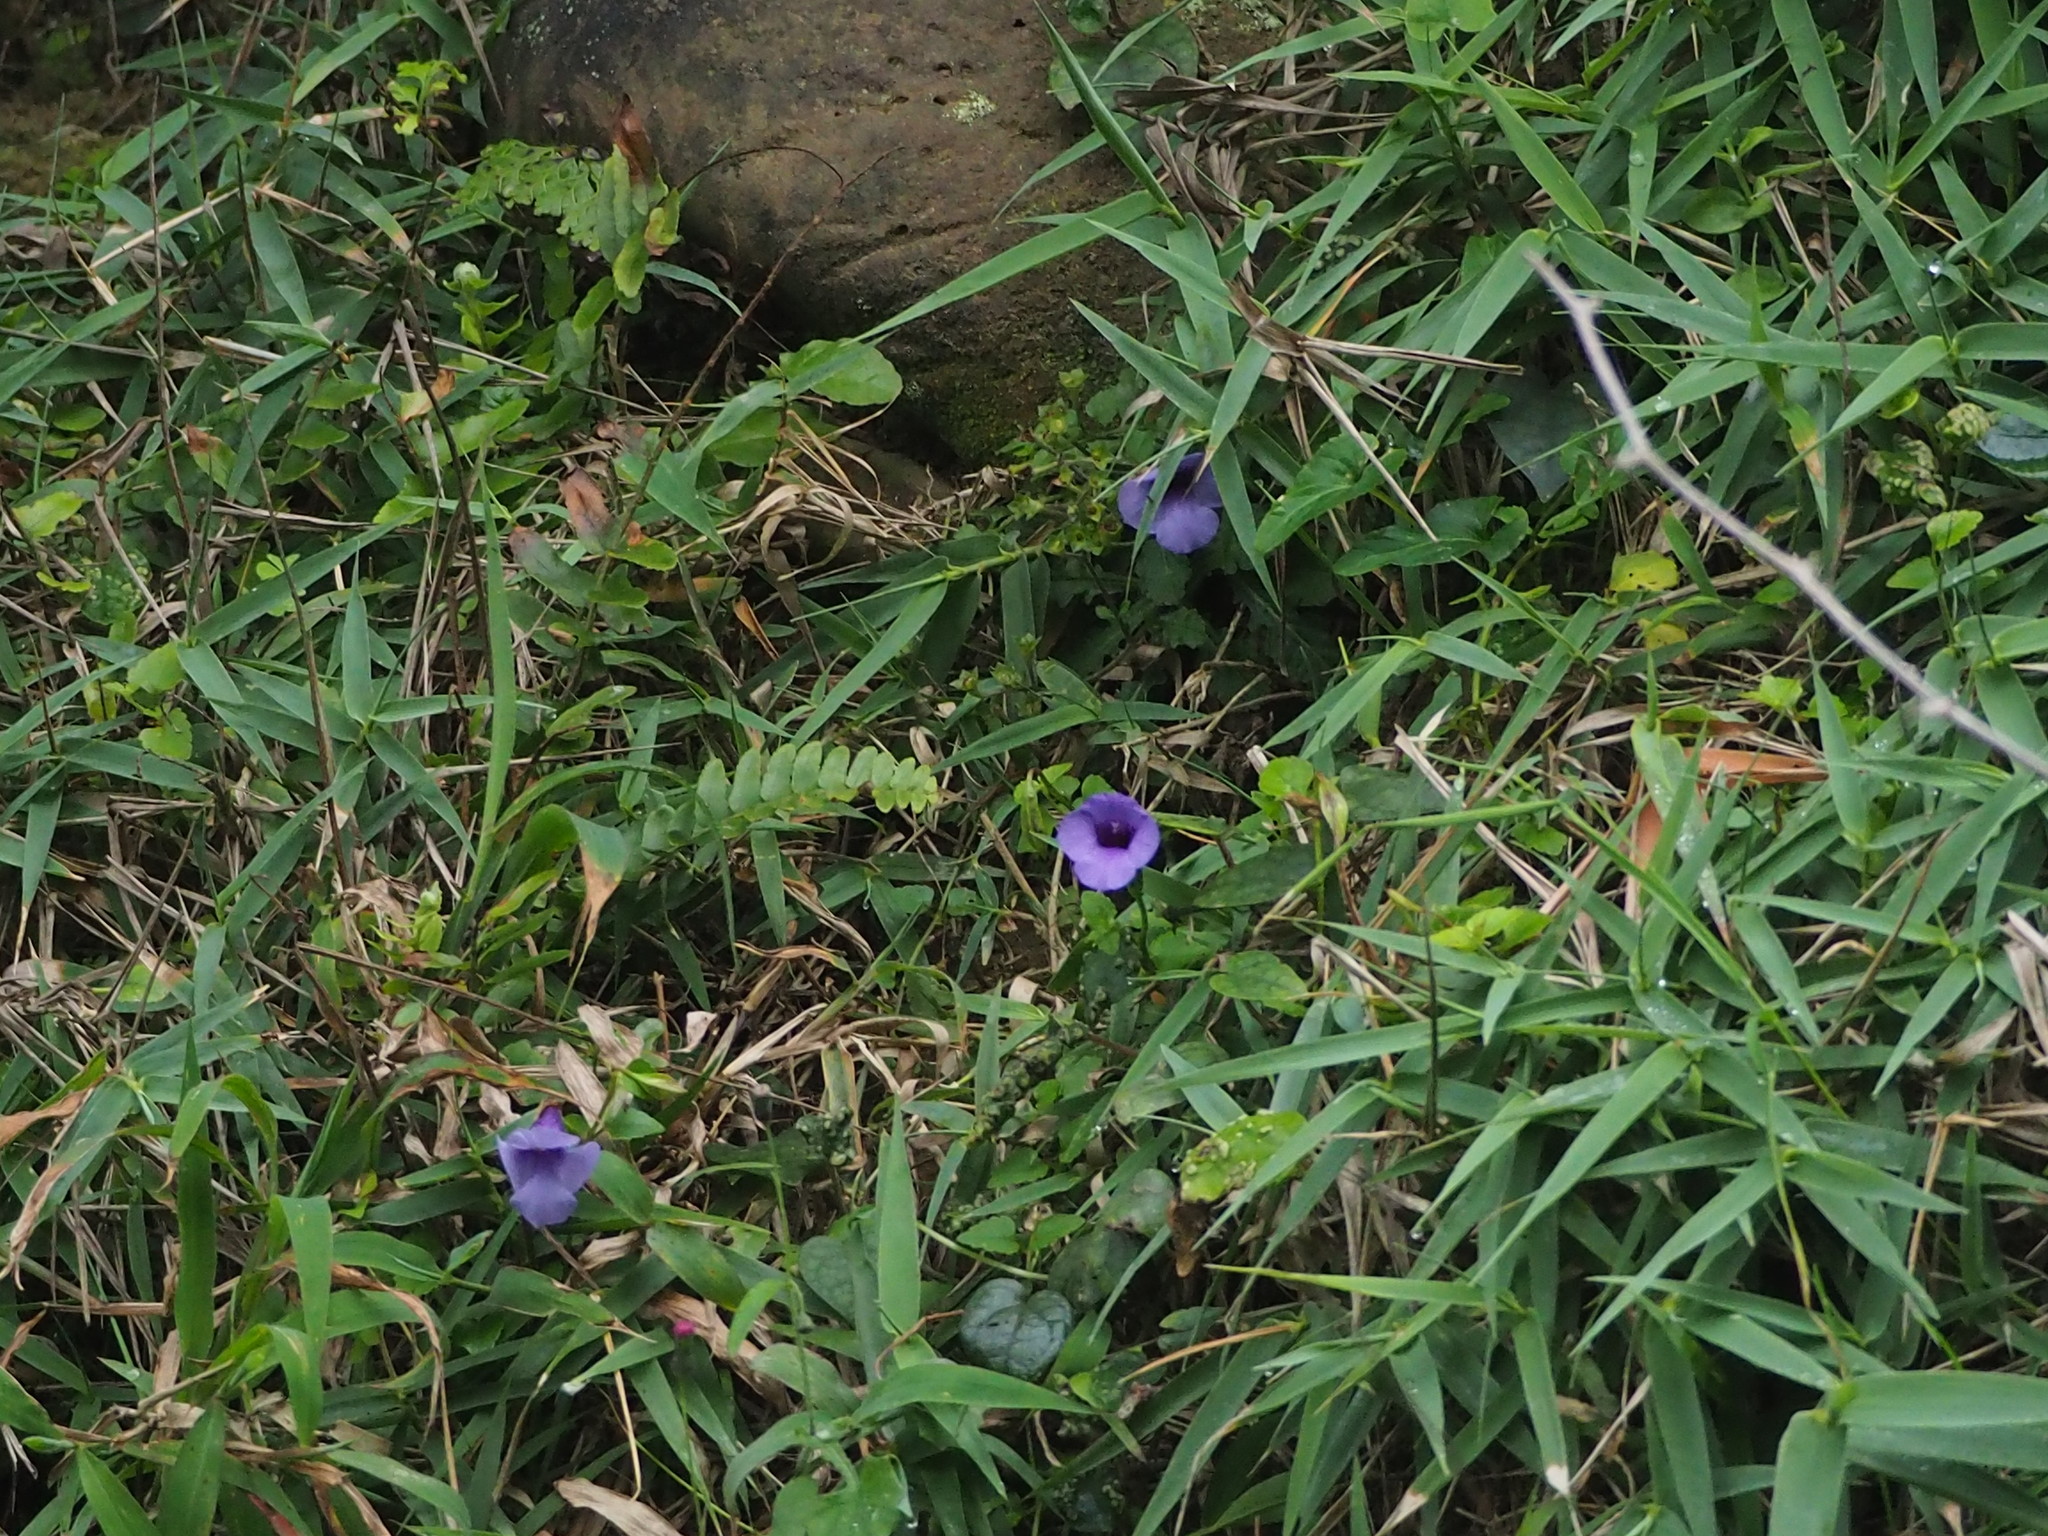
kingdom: Plantae
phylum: Tracheophyta
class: Magnoliopsida
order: Lamiales
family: Linderniaceae
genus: Torenia
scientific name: Torenia concolor
